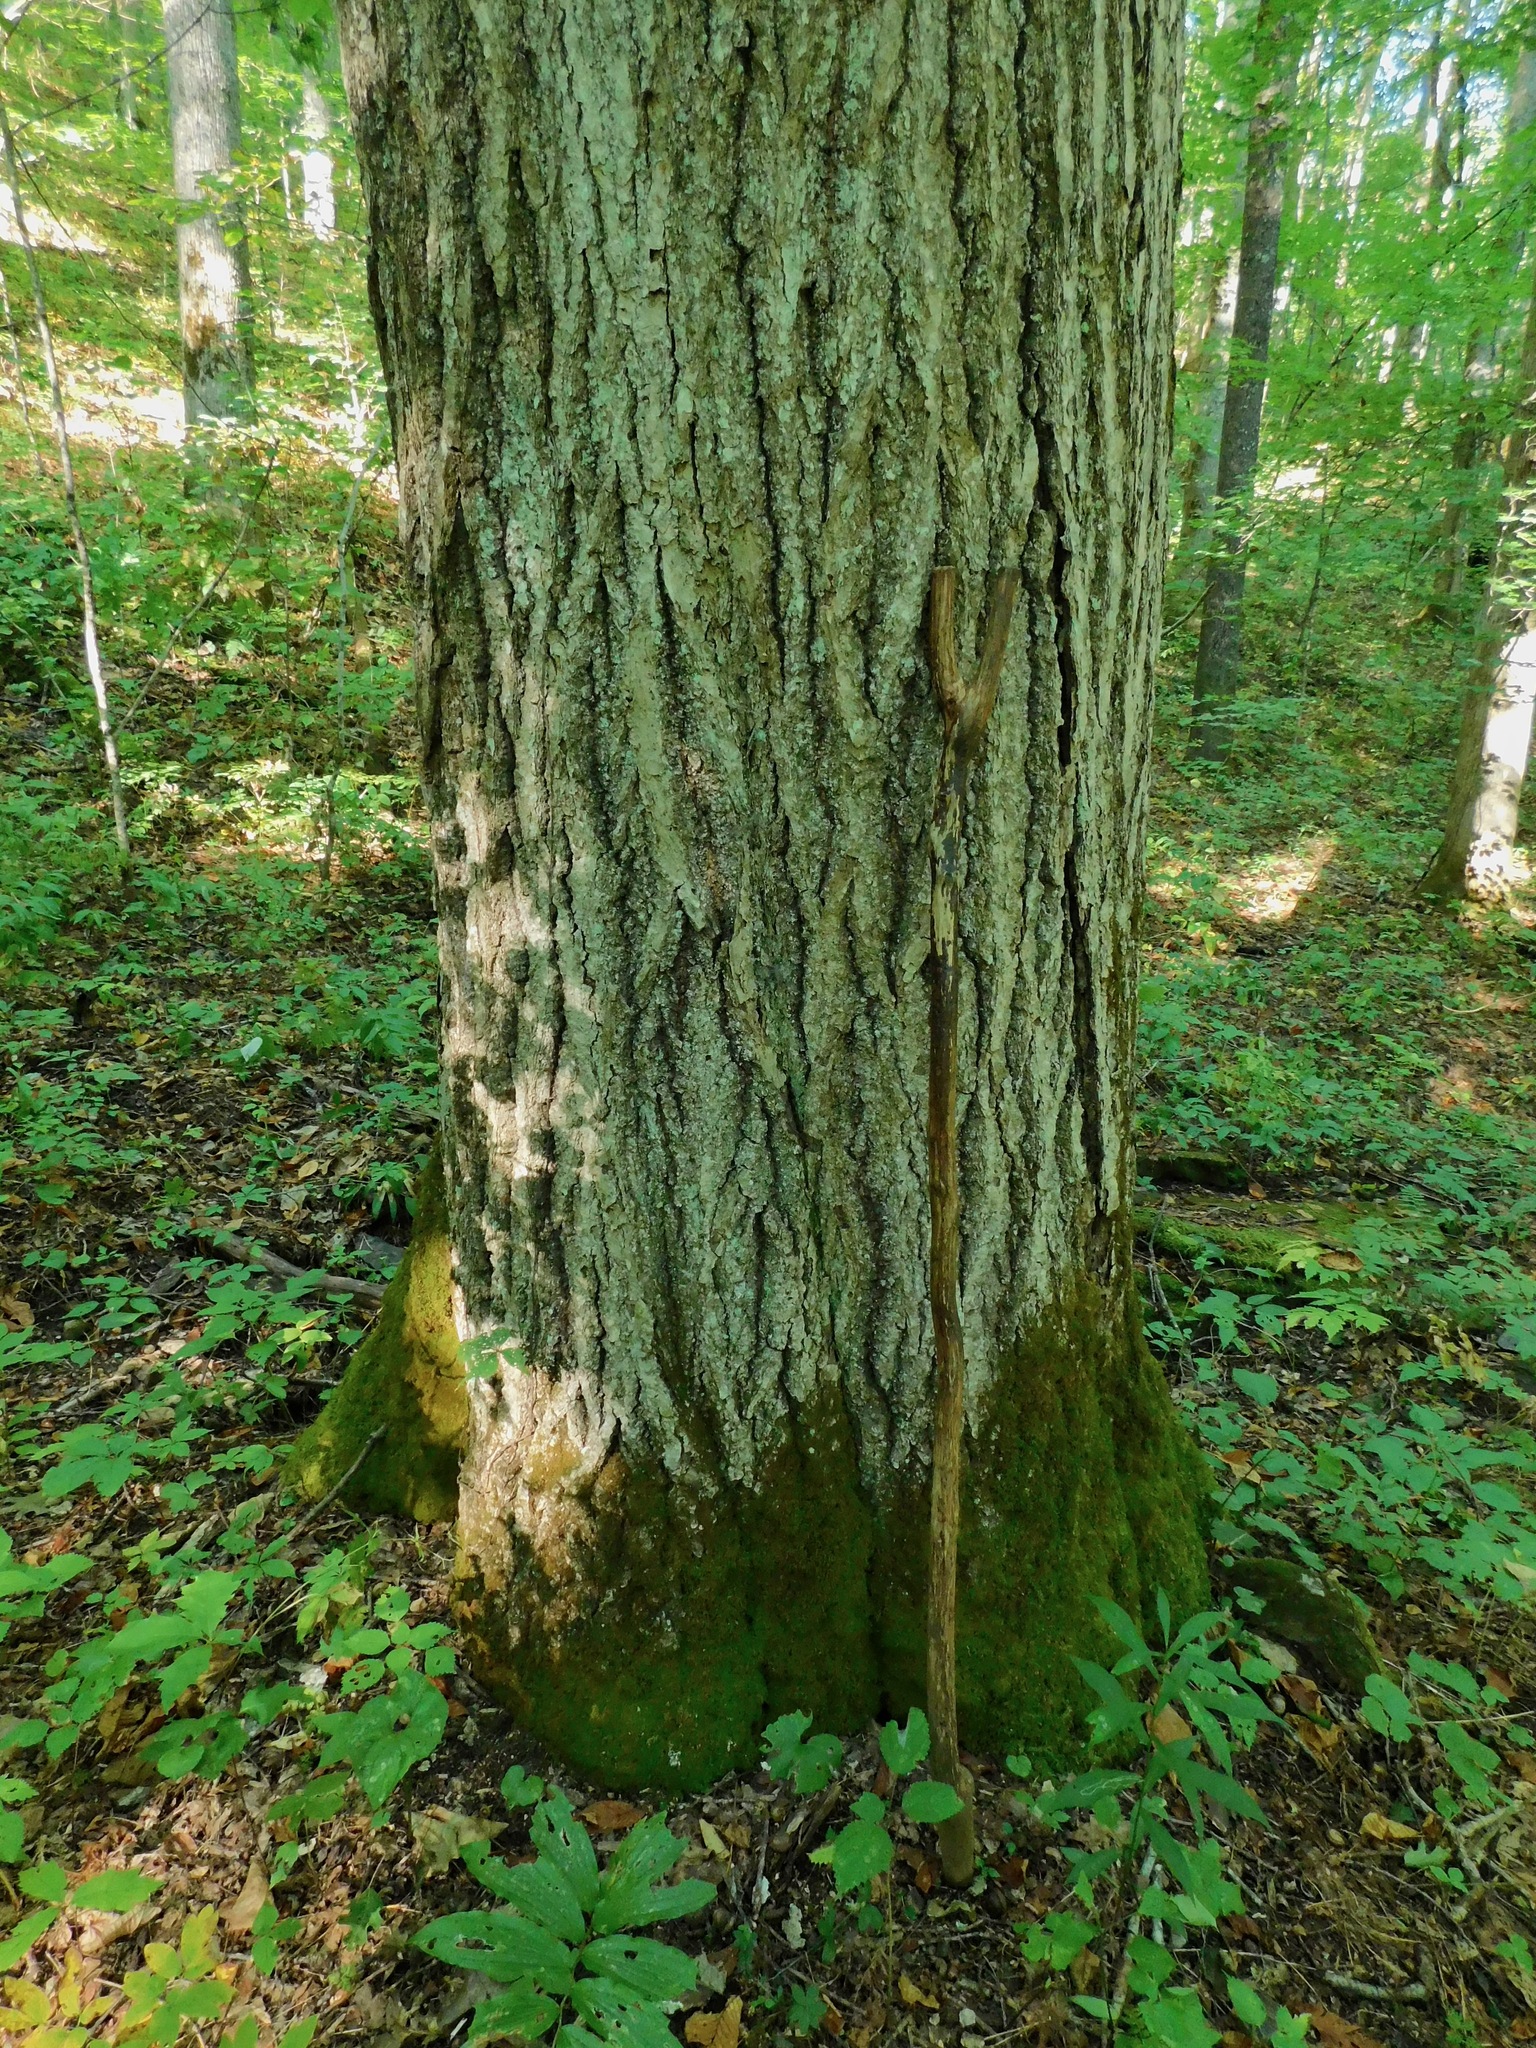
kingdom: Plantae
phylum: Tracheophyta
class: Magnoliopsida
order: Fagales
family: Fagaceae
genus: Quercus
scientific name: Quercus rubra
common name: Red oak
